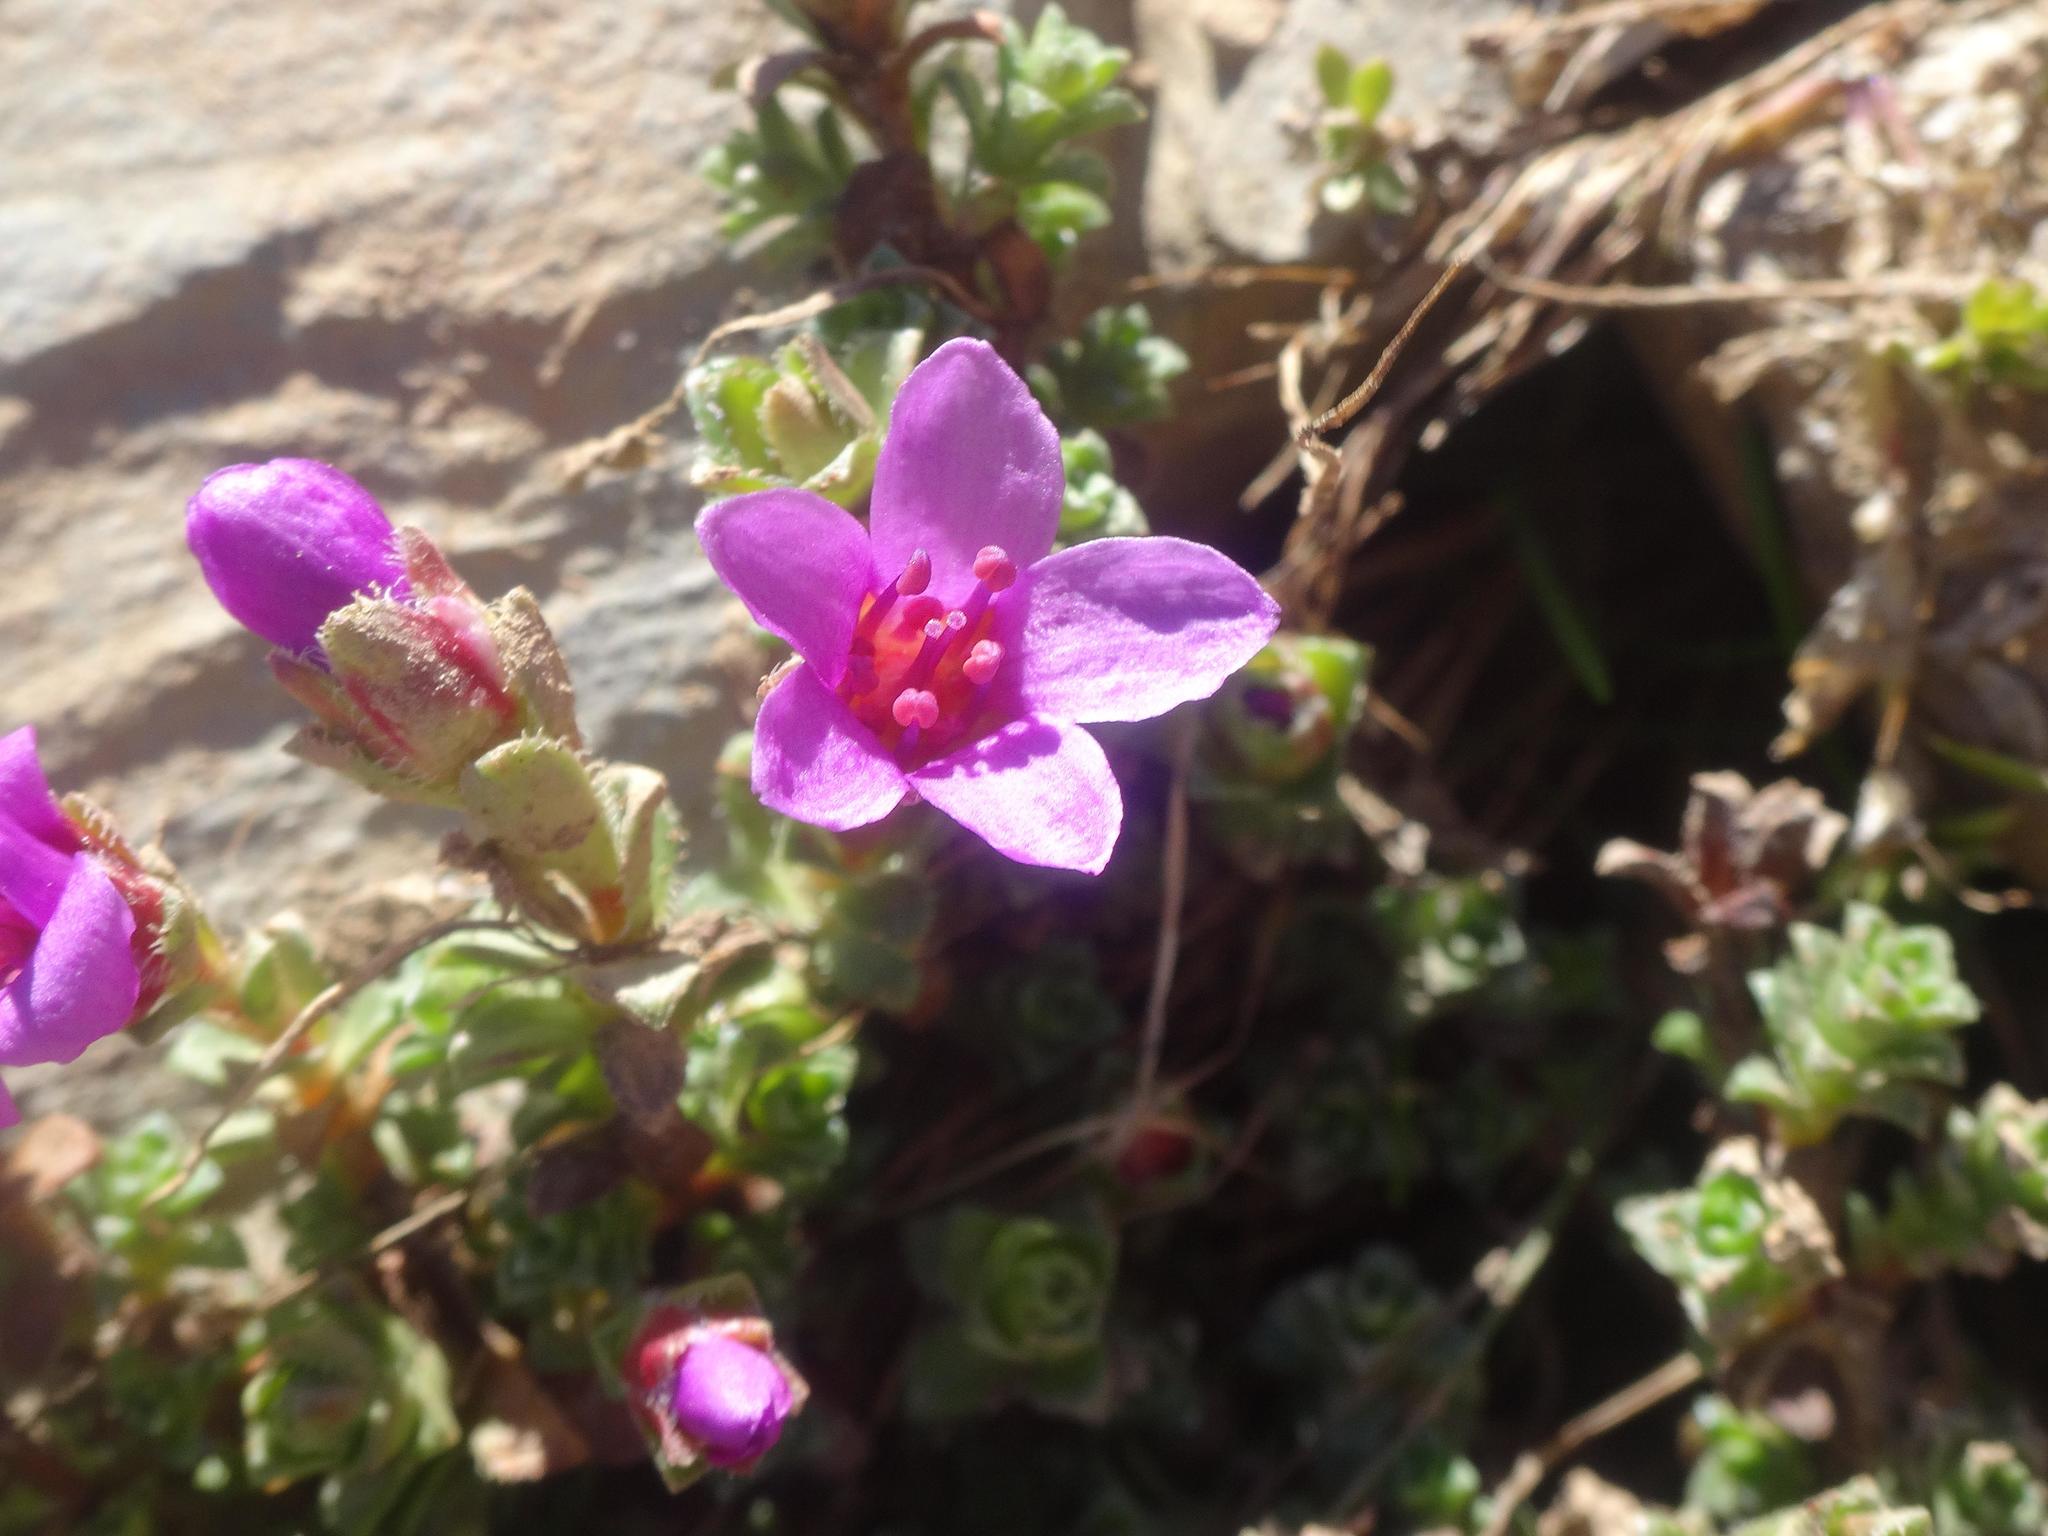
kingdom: Plantae
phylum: Tracheophyta
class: Magnoliopsida
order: Saxifragales
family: Saxifragaceae
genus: Saxifraga
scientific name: Saxifraga oppositifolia
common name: Purple saxifrage
